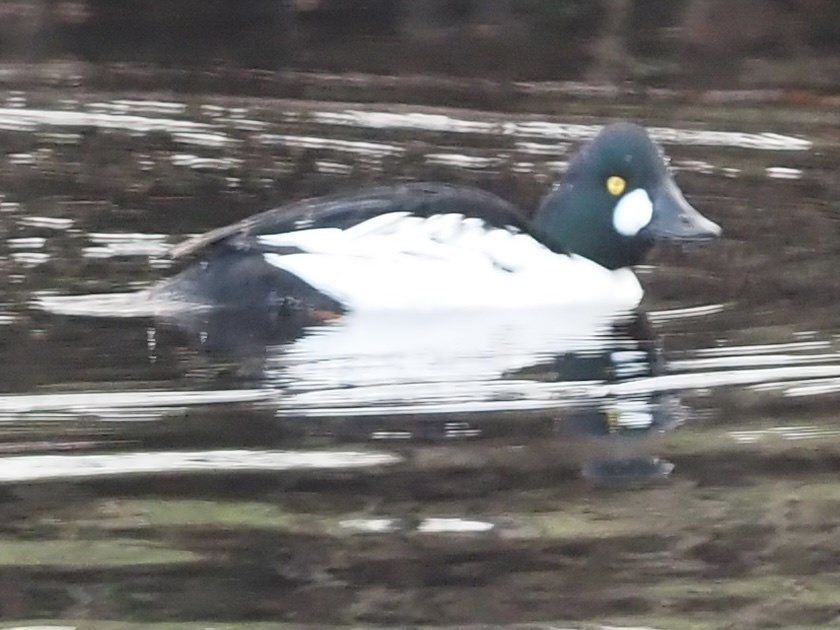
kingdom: Animalia
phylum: Chordata
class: Aves
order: Anseriformes
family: Anatidae
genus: Bucephala
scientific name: Bucephala clangula
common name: Common goldeneye
